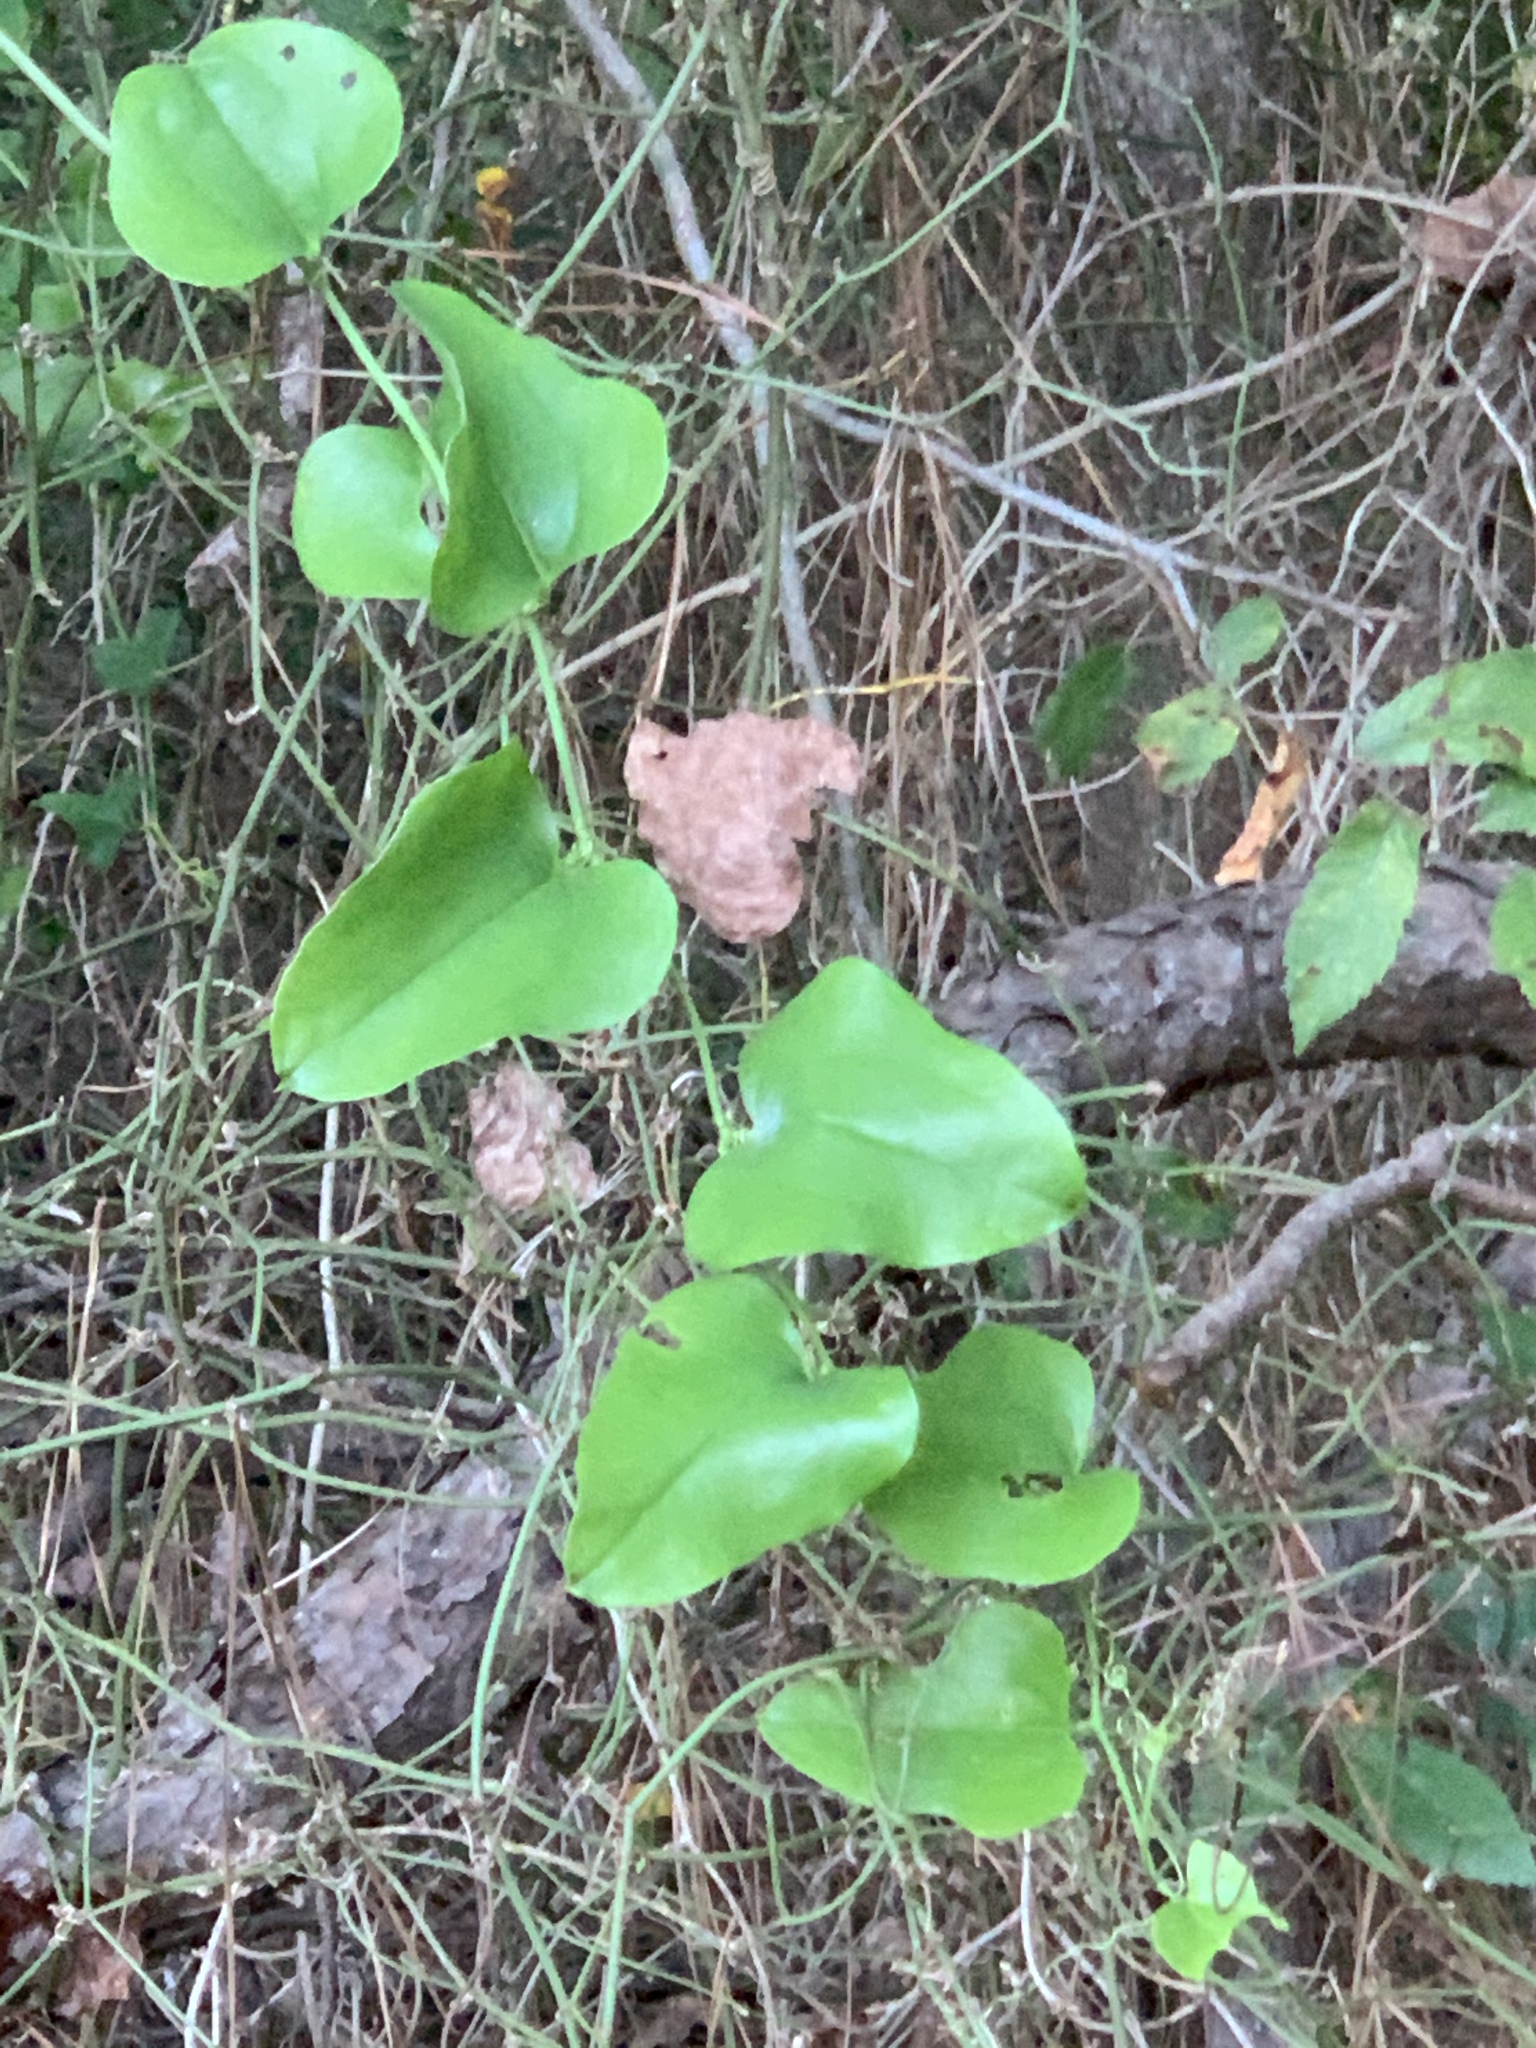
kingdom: Plantae
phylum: Tracheophyta
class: Liliopsida
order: Liliales
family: Smilacaceae
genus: Smilax
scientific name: Smilax bona-nox
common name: Catbrier
